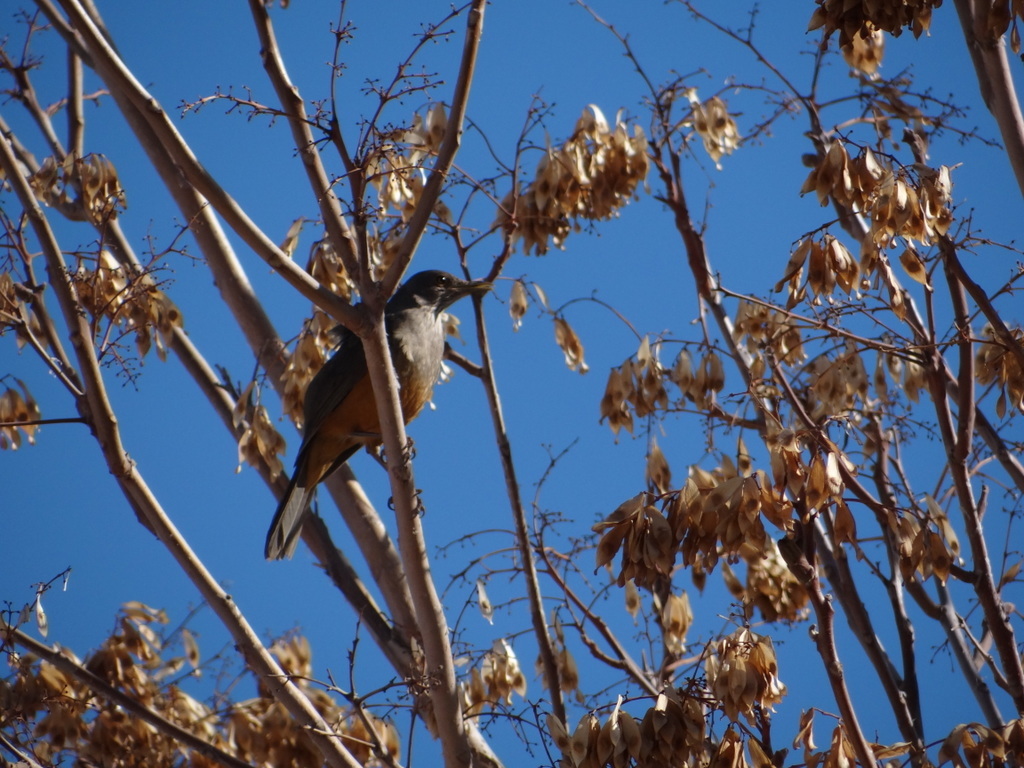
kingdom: Animalia
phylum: Chordata
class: Aves
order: Passeriformes
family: Turdidae
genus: Turdus
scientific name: Turdus rufiventris
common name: Rufous-bellied thrush
